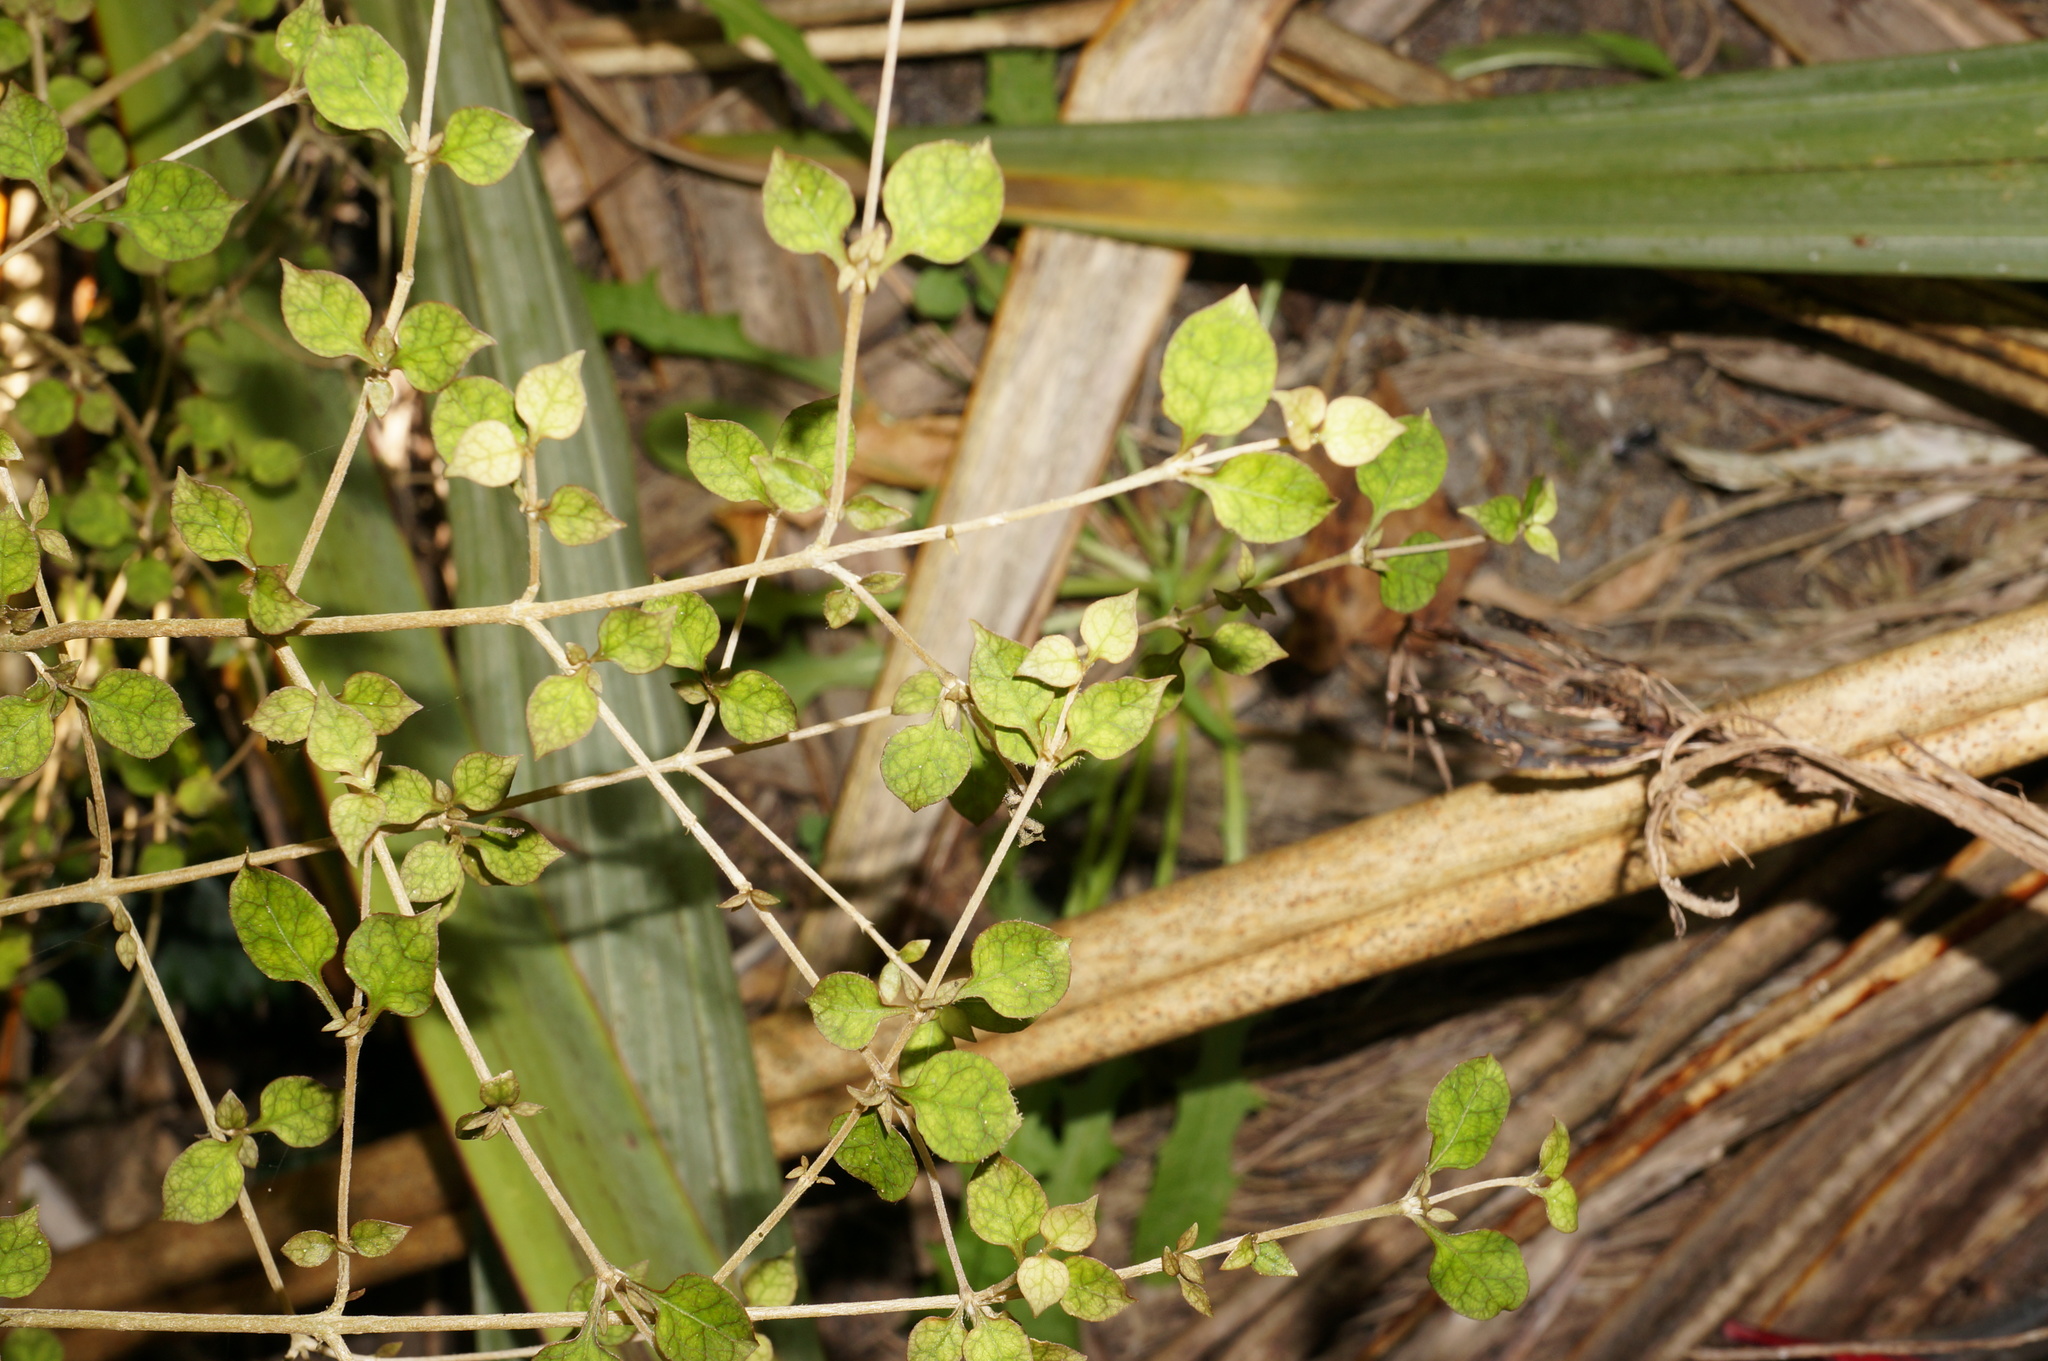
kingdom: Plantae
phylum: Tracheophyta
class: Magnoliopsida
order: Gentianales
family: Rubiaceae
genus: Coprosma
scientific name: Coprosma areolata
